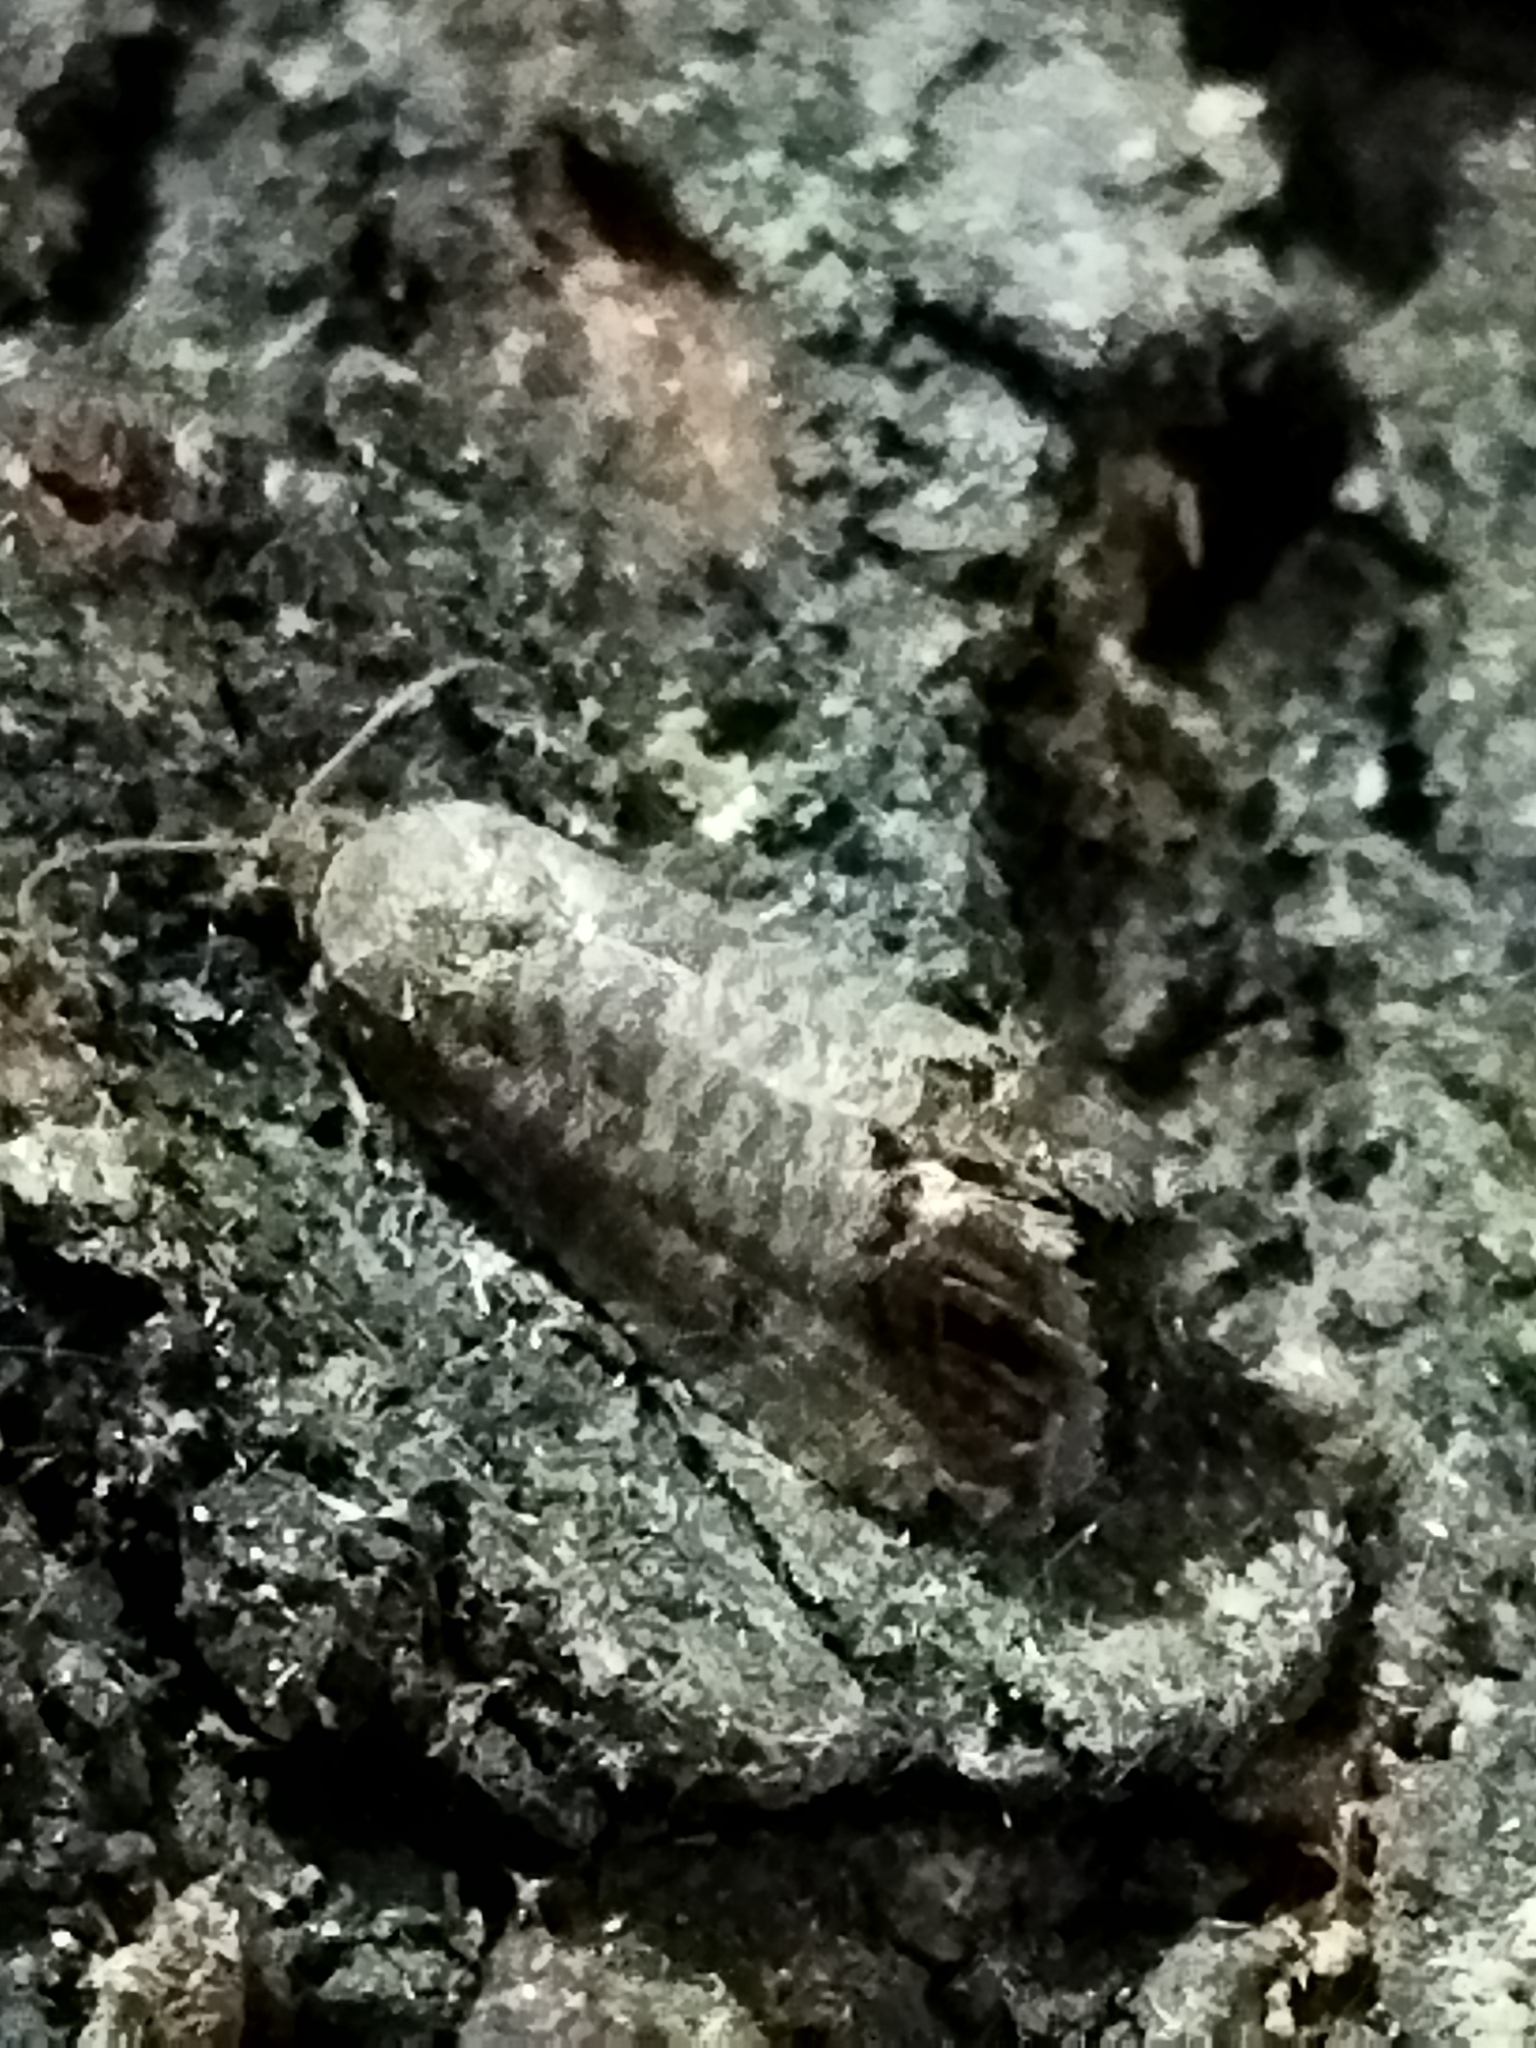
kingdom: Animalia
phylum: Arthropoda
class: Insecta
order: Lepidoptera
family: Tortricidae
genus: Cydia
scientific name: Cydia pomonella
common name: Codling moth
